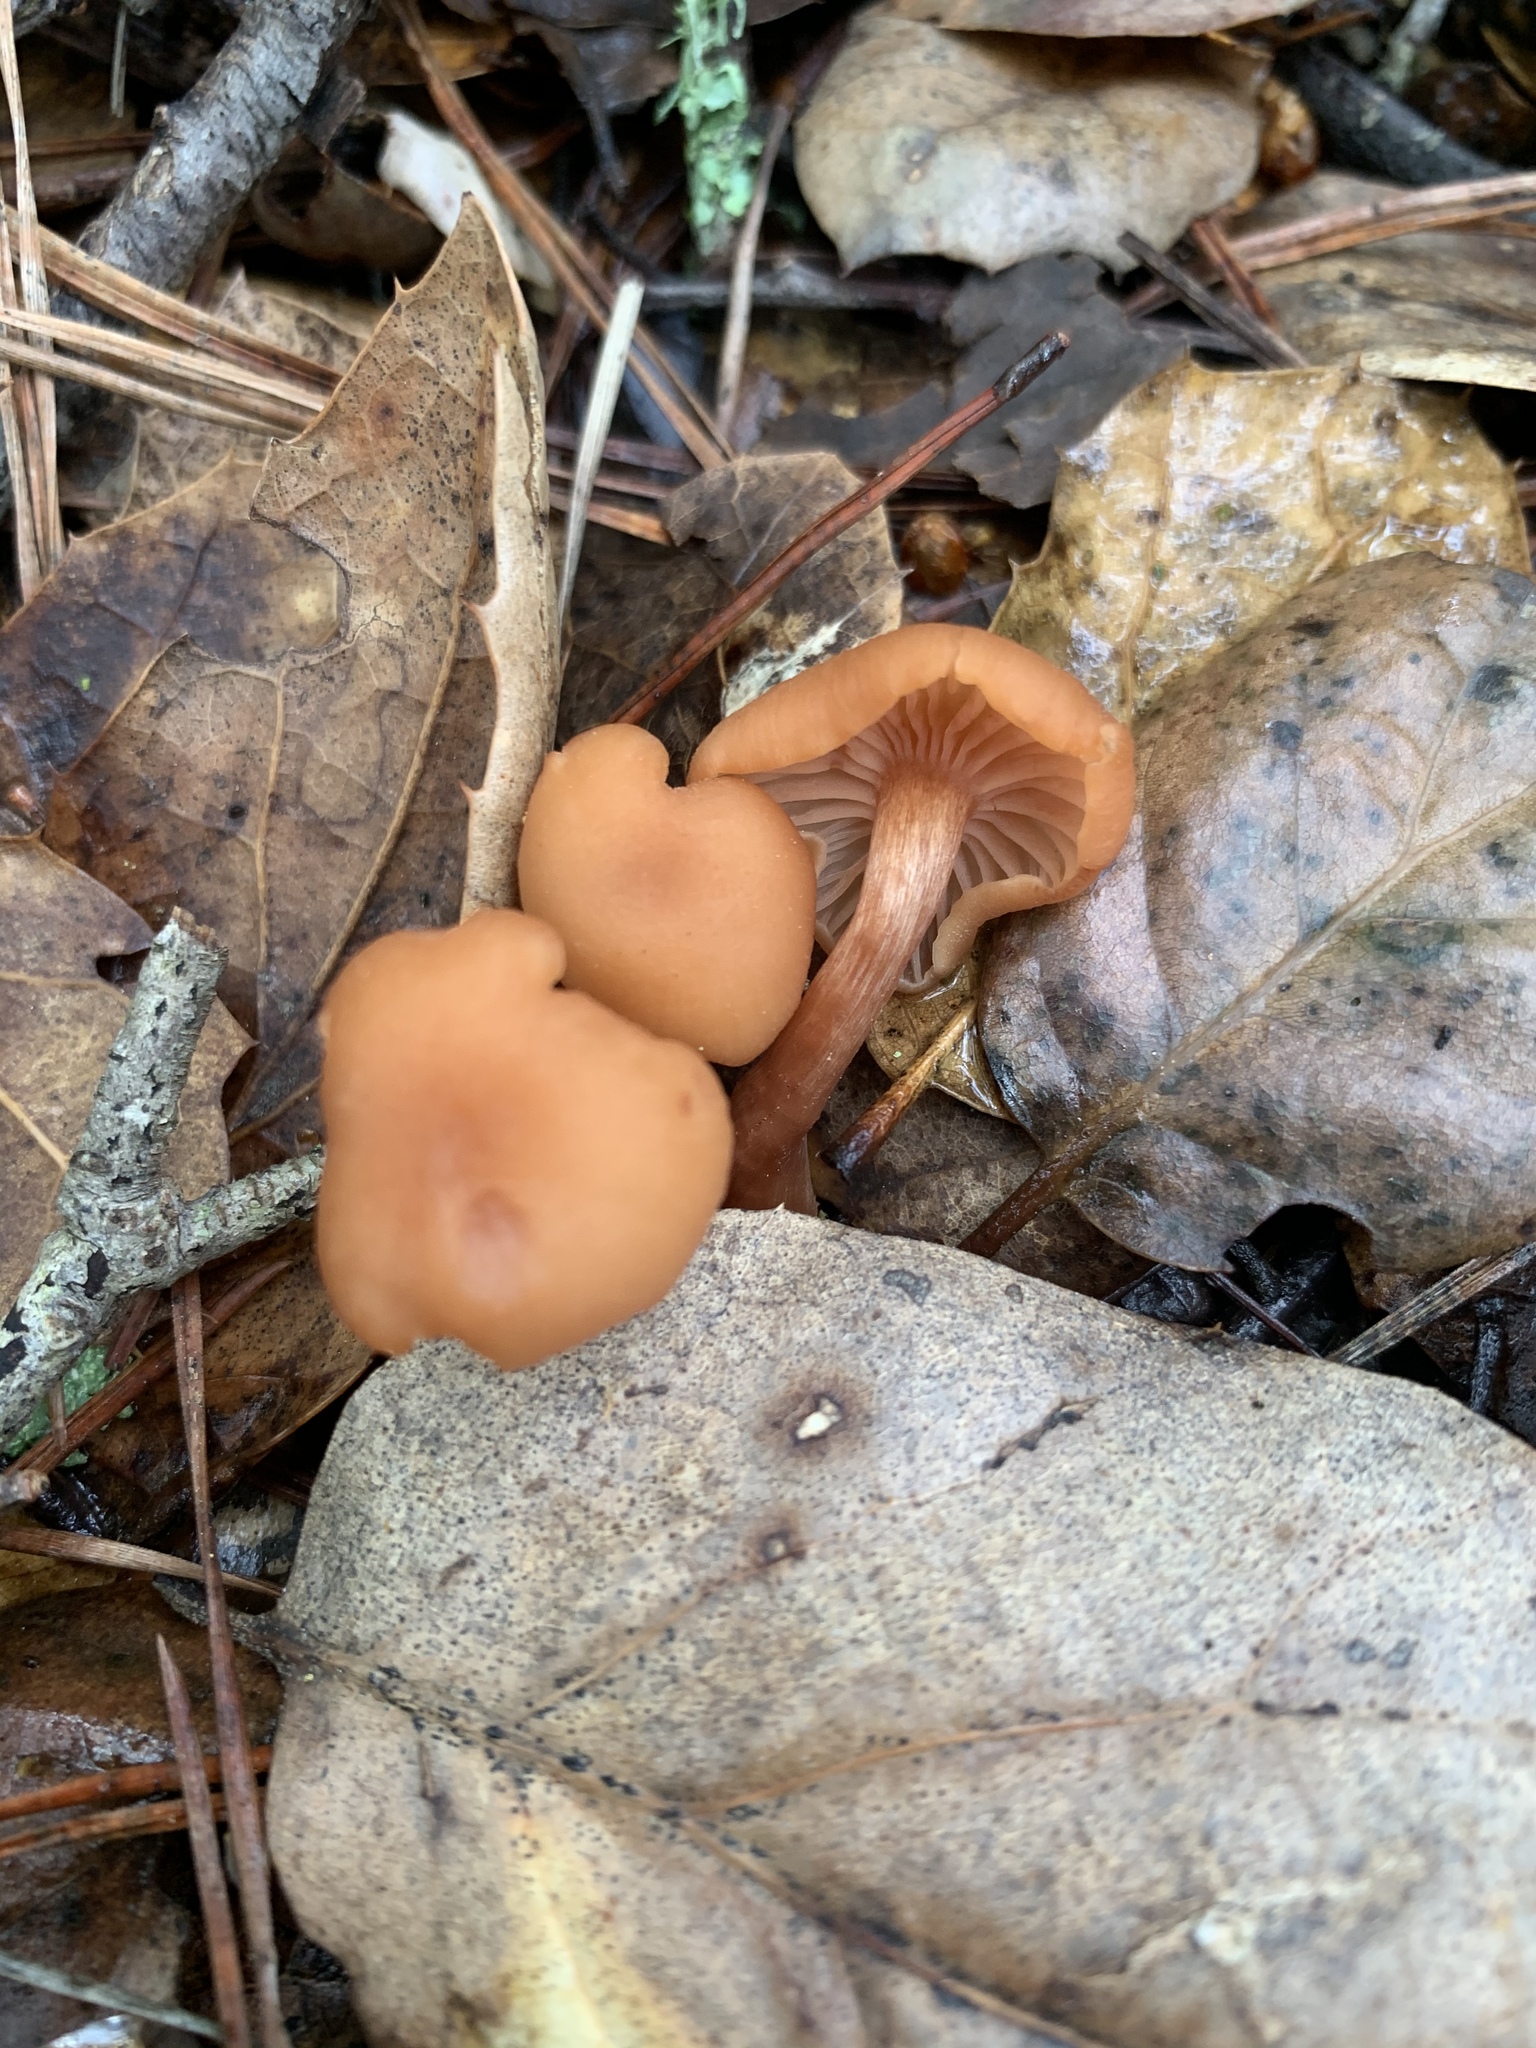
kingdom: Fungi
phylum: Basidiomycota
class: Agaricomycetes
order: Agaricales
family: Hydnangiaceae
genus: Laccaria
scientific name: Laccaria laccata
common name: Deceiver
